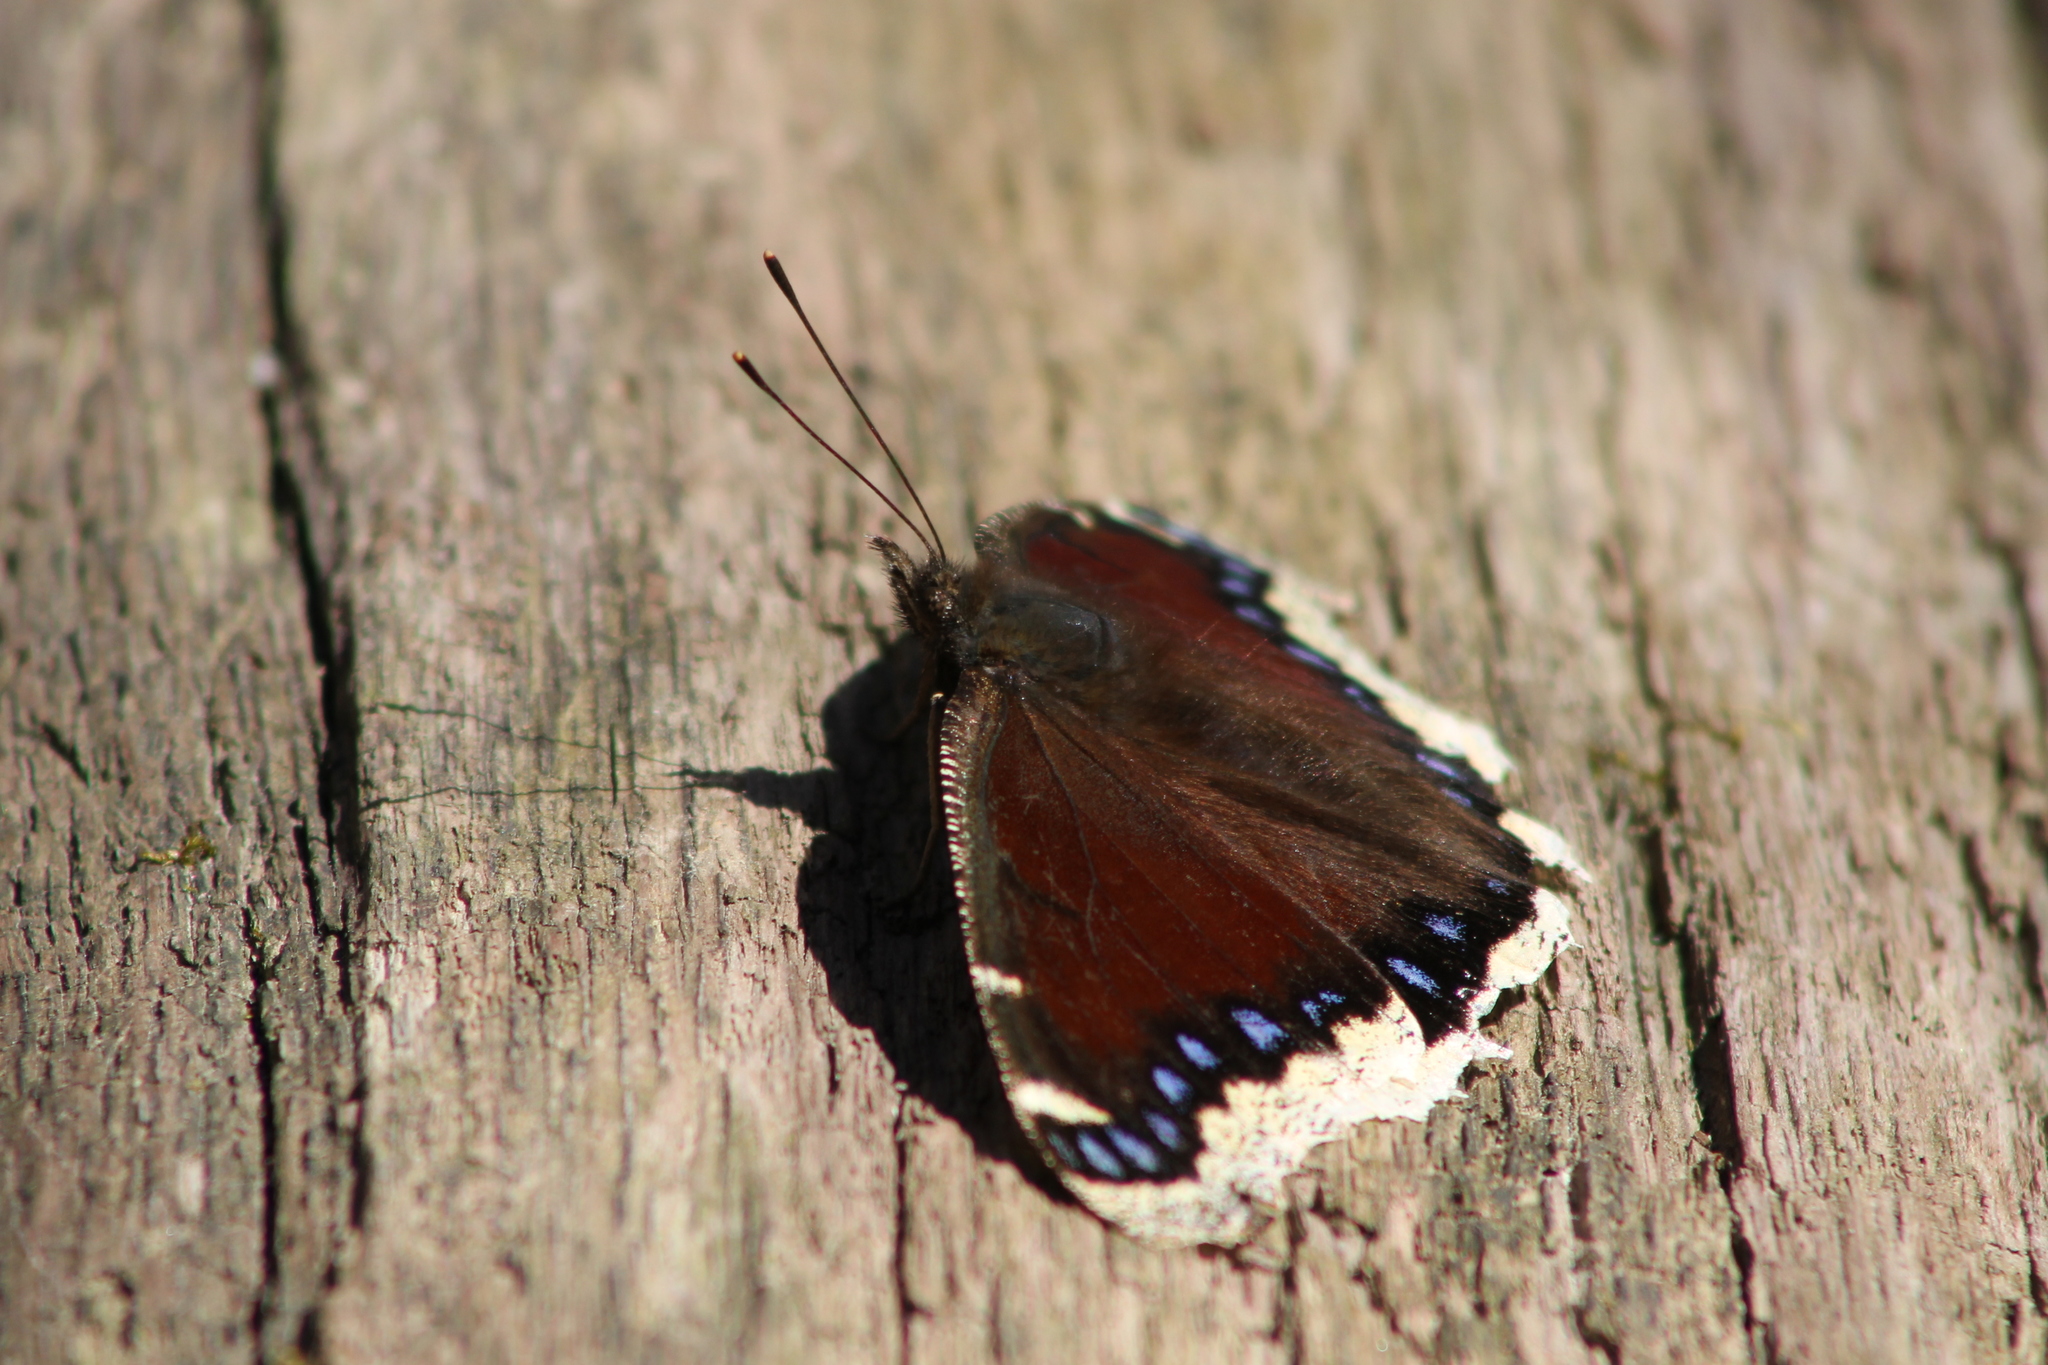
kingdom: Animalia
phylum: Arthropoda
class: Insecta
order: Lepidoptera
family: Nymphalidae
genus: Nymphalis
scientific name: Nymphalis antiopa
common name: Camberwell beauty
